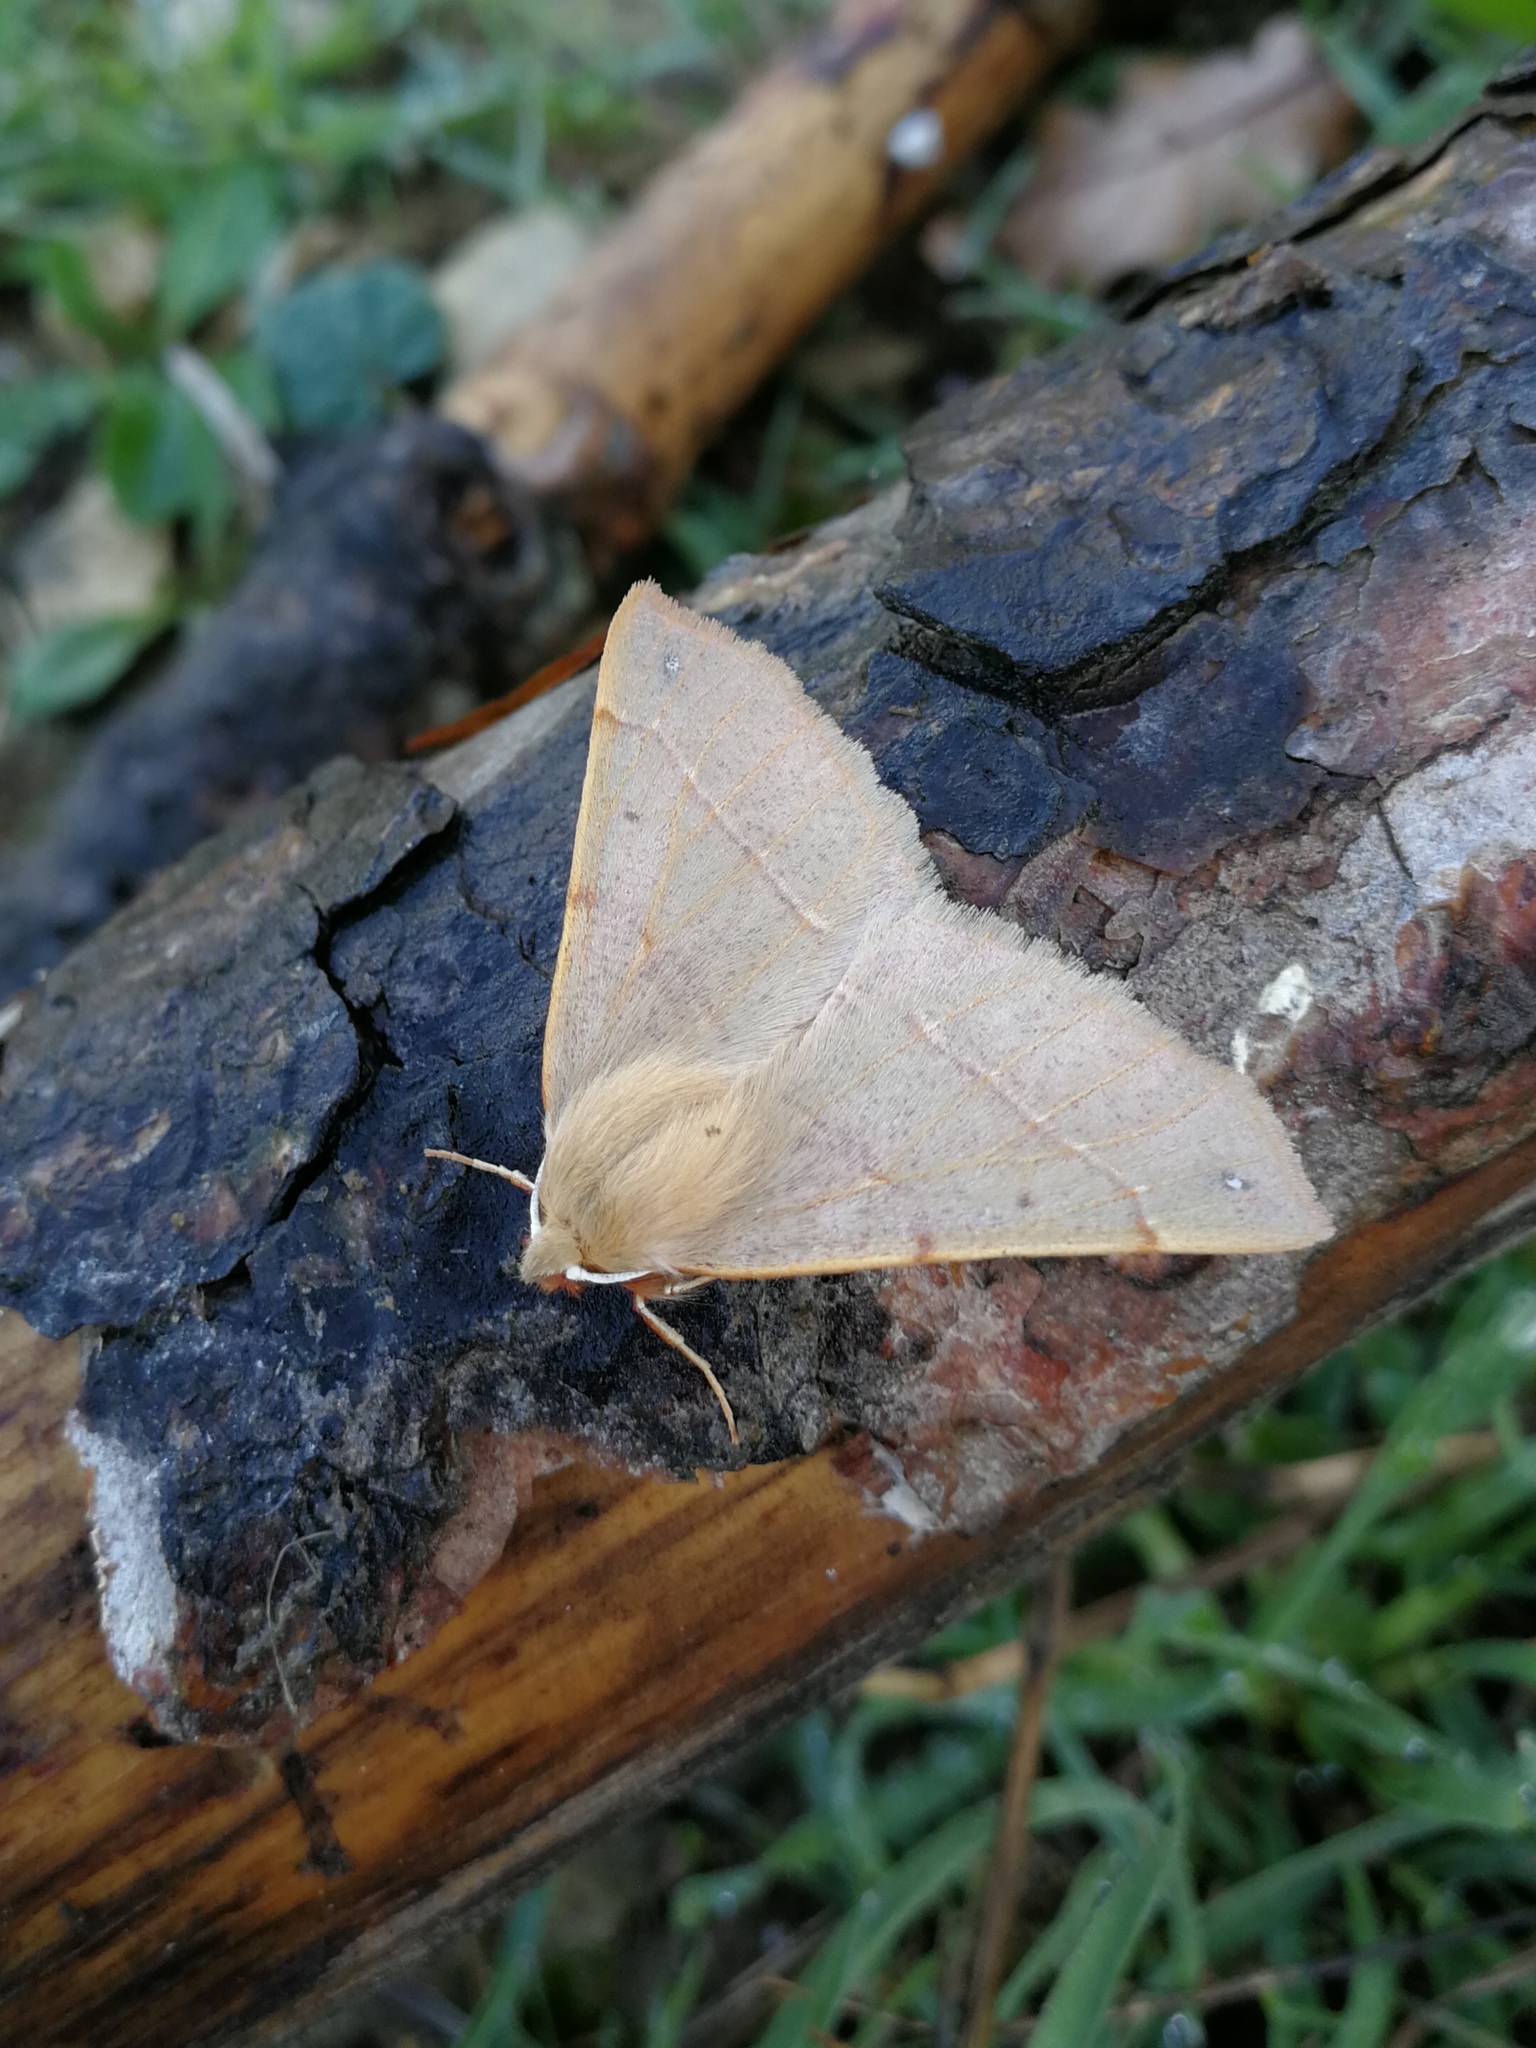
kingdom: Animalia
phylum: Arthropoda
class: Insecta
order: Lepidoptera
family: Geometridae
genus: Colotois
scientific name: Colotois pennaria
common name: Feathered thorn
